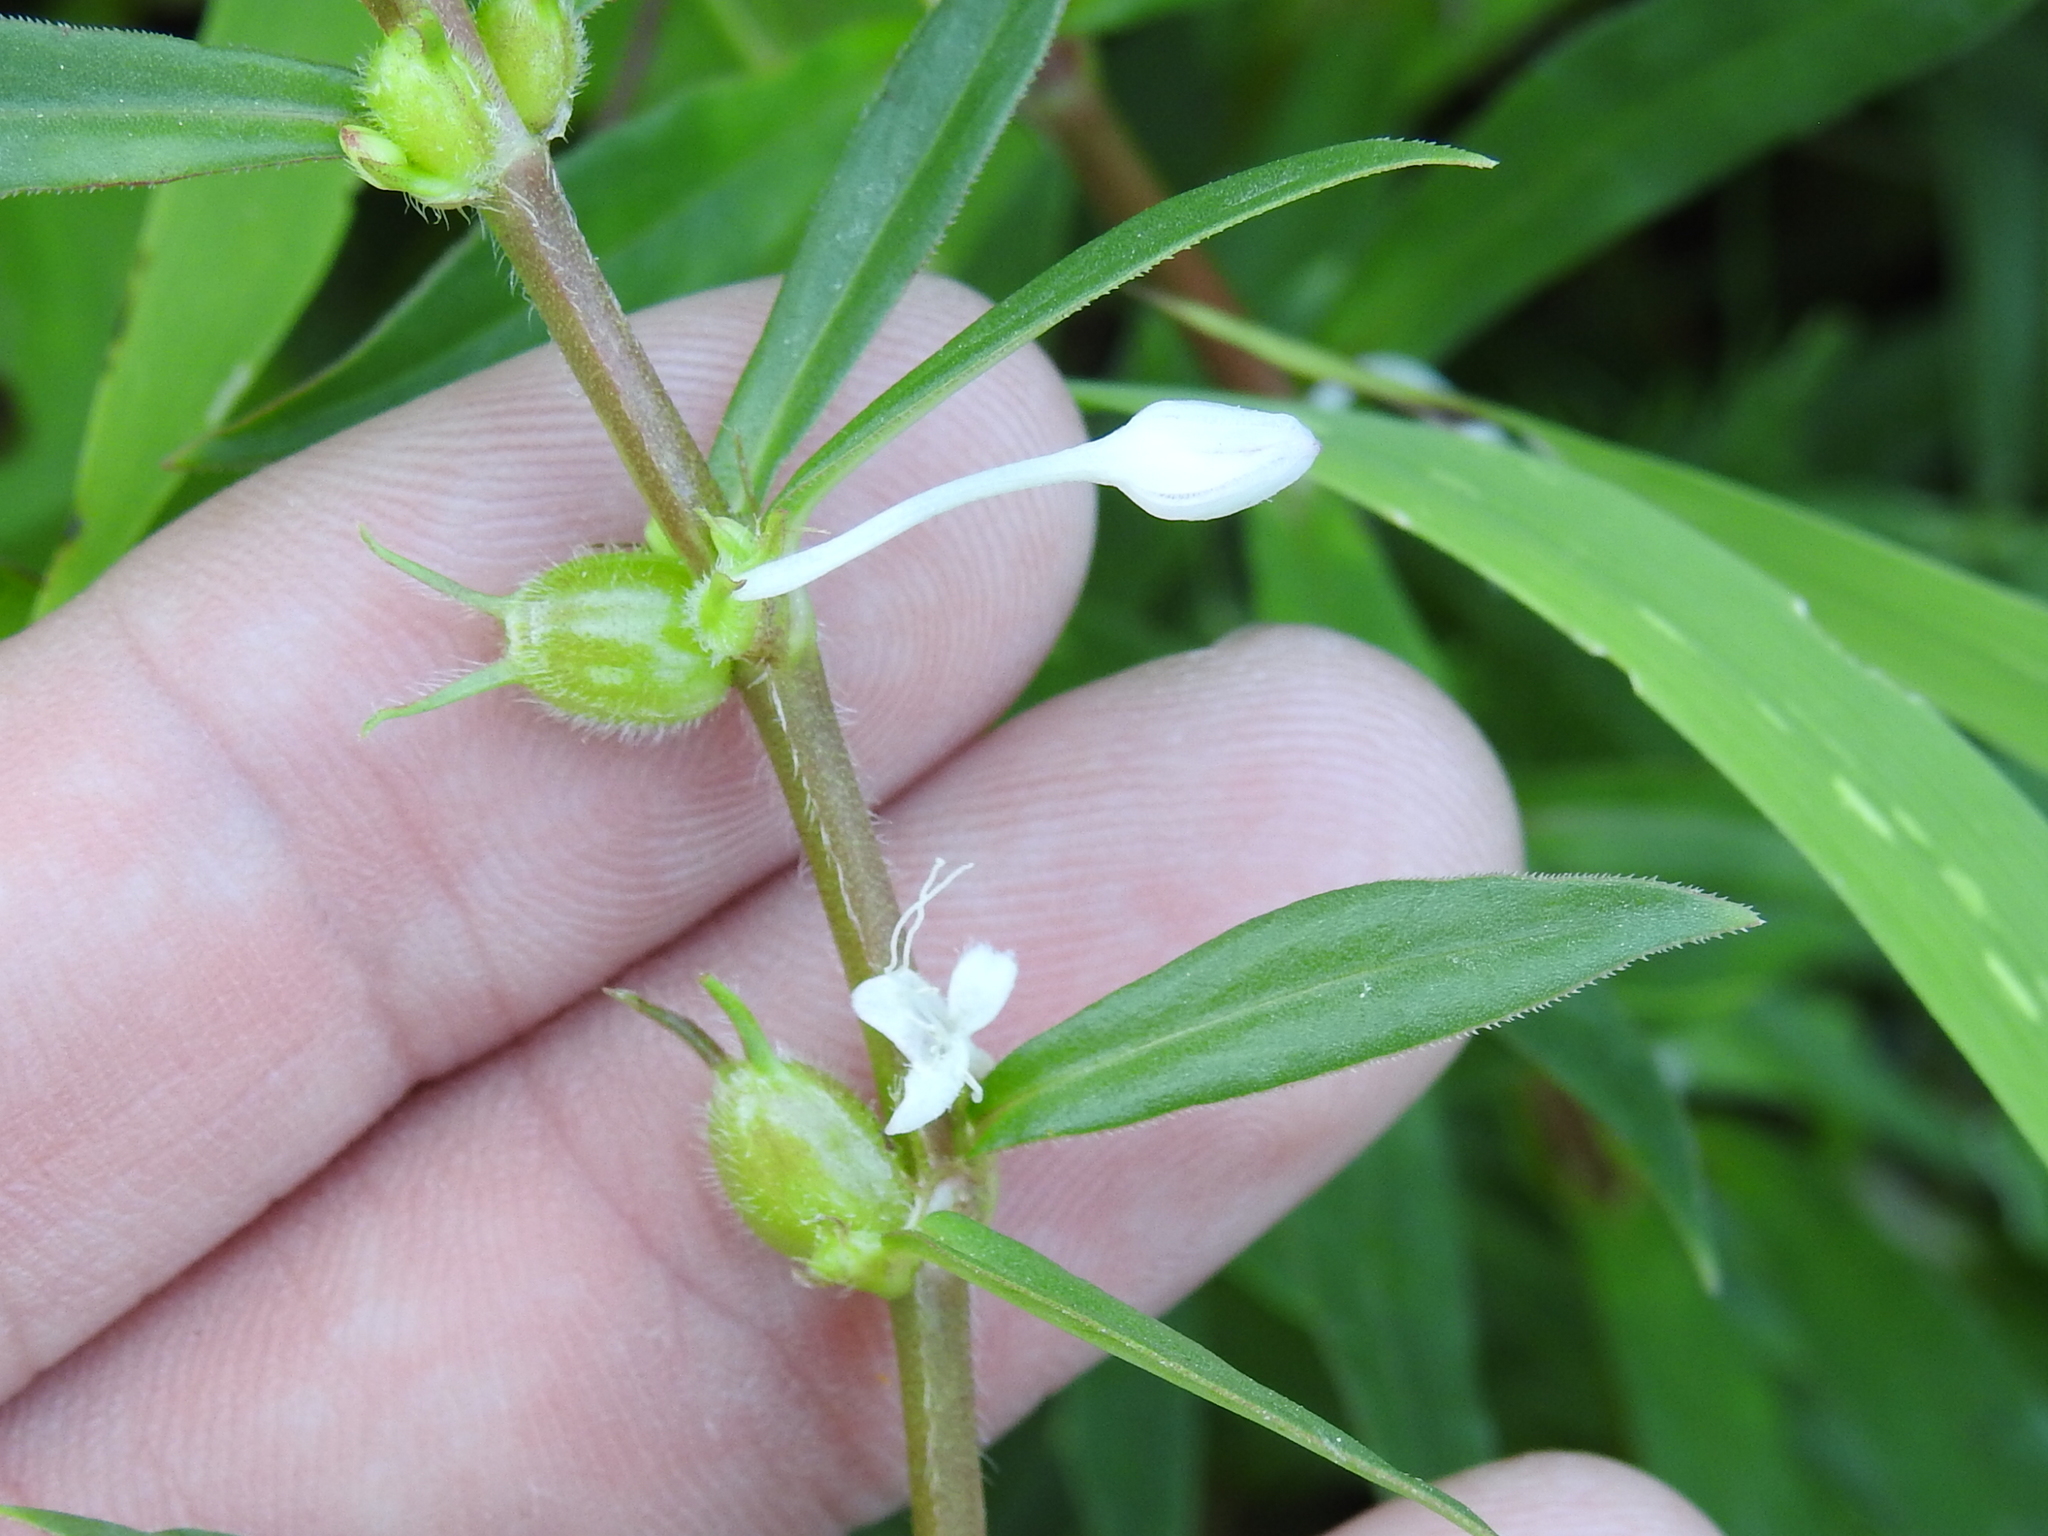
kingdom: Plantae
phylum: Tracheophyta
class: Magnoliopsida
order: Gentianales
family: Rubiaceae
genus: Diodia
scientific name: Diodia virginiana
